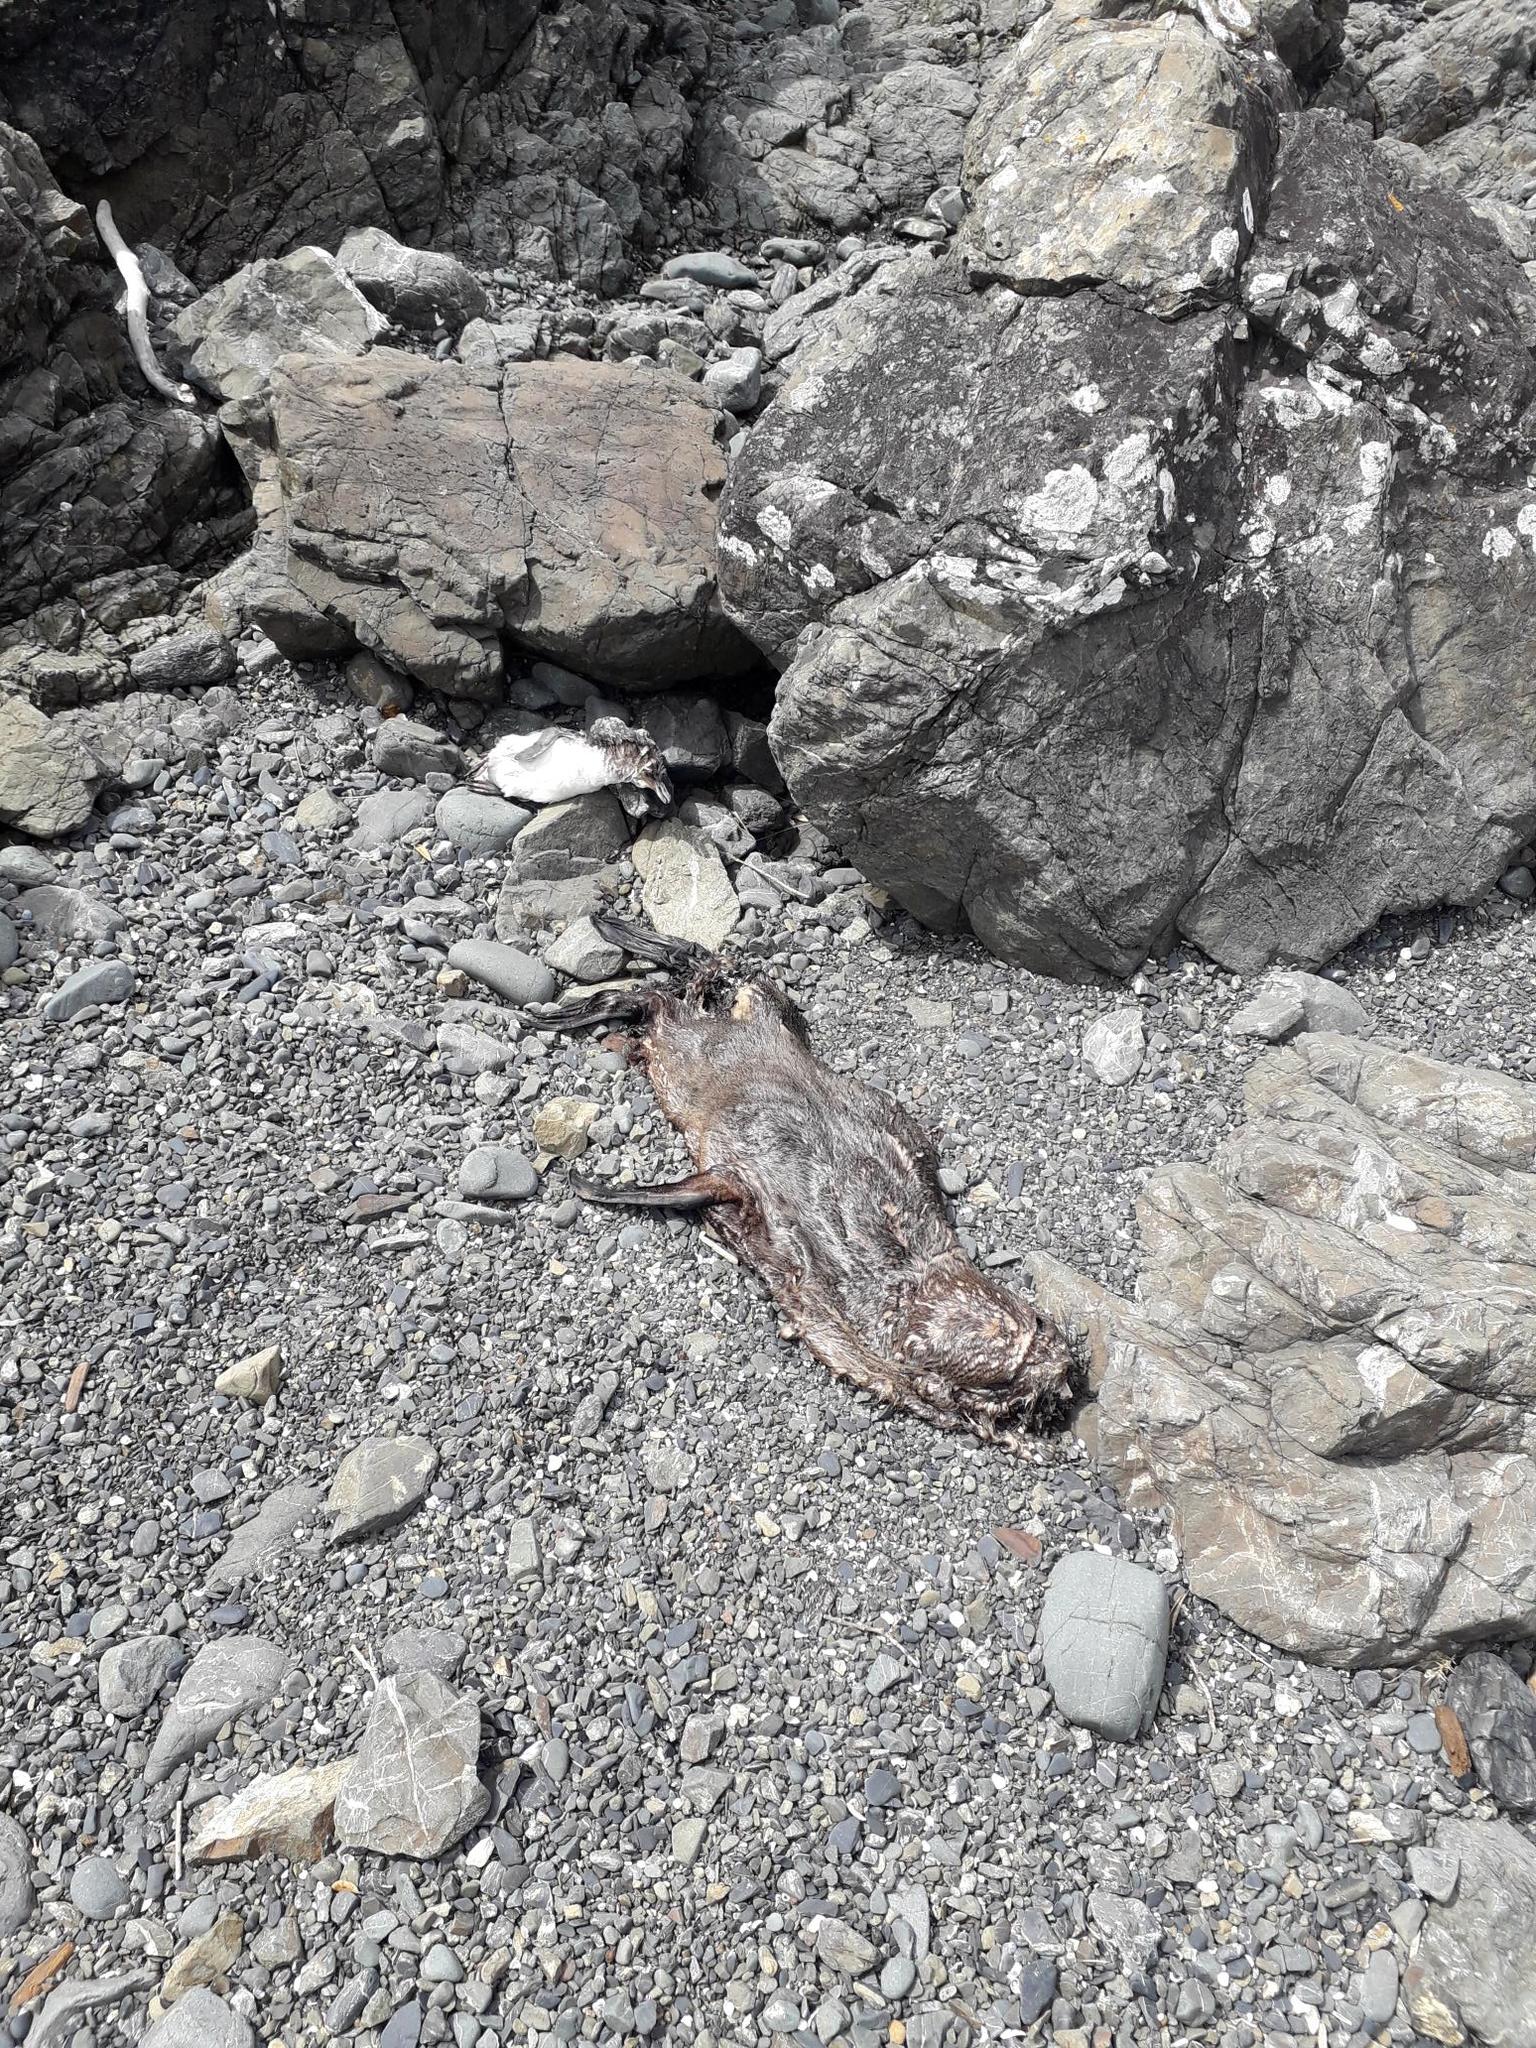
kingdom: Animalia
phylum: Chordata
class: Mammalia
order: Carnivora
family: Otariidae
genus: Arctocephalus
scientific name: Arctocephalus forsteri
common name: New zealand fur seal
